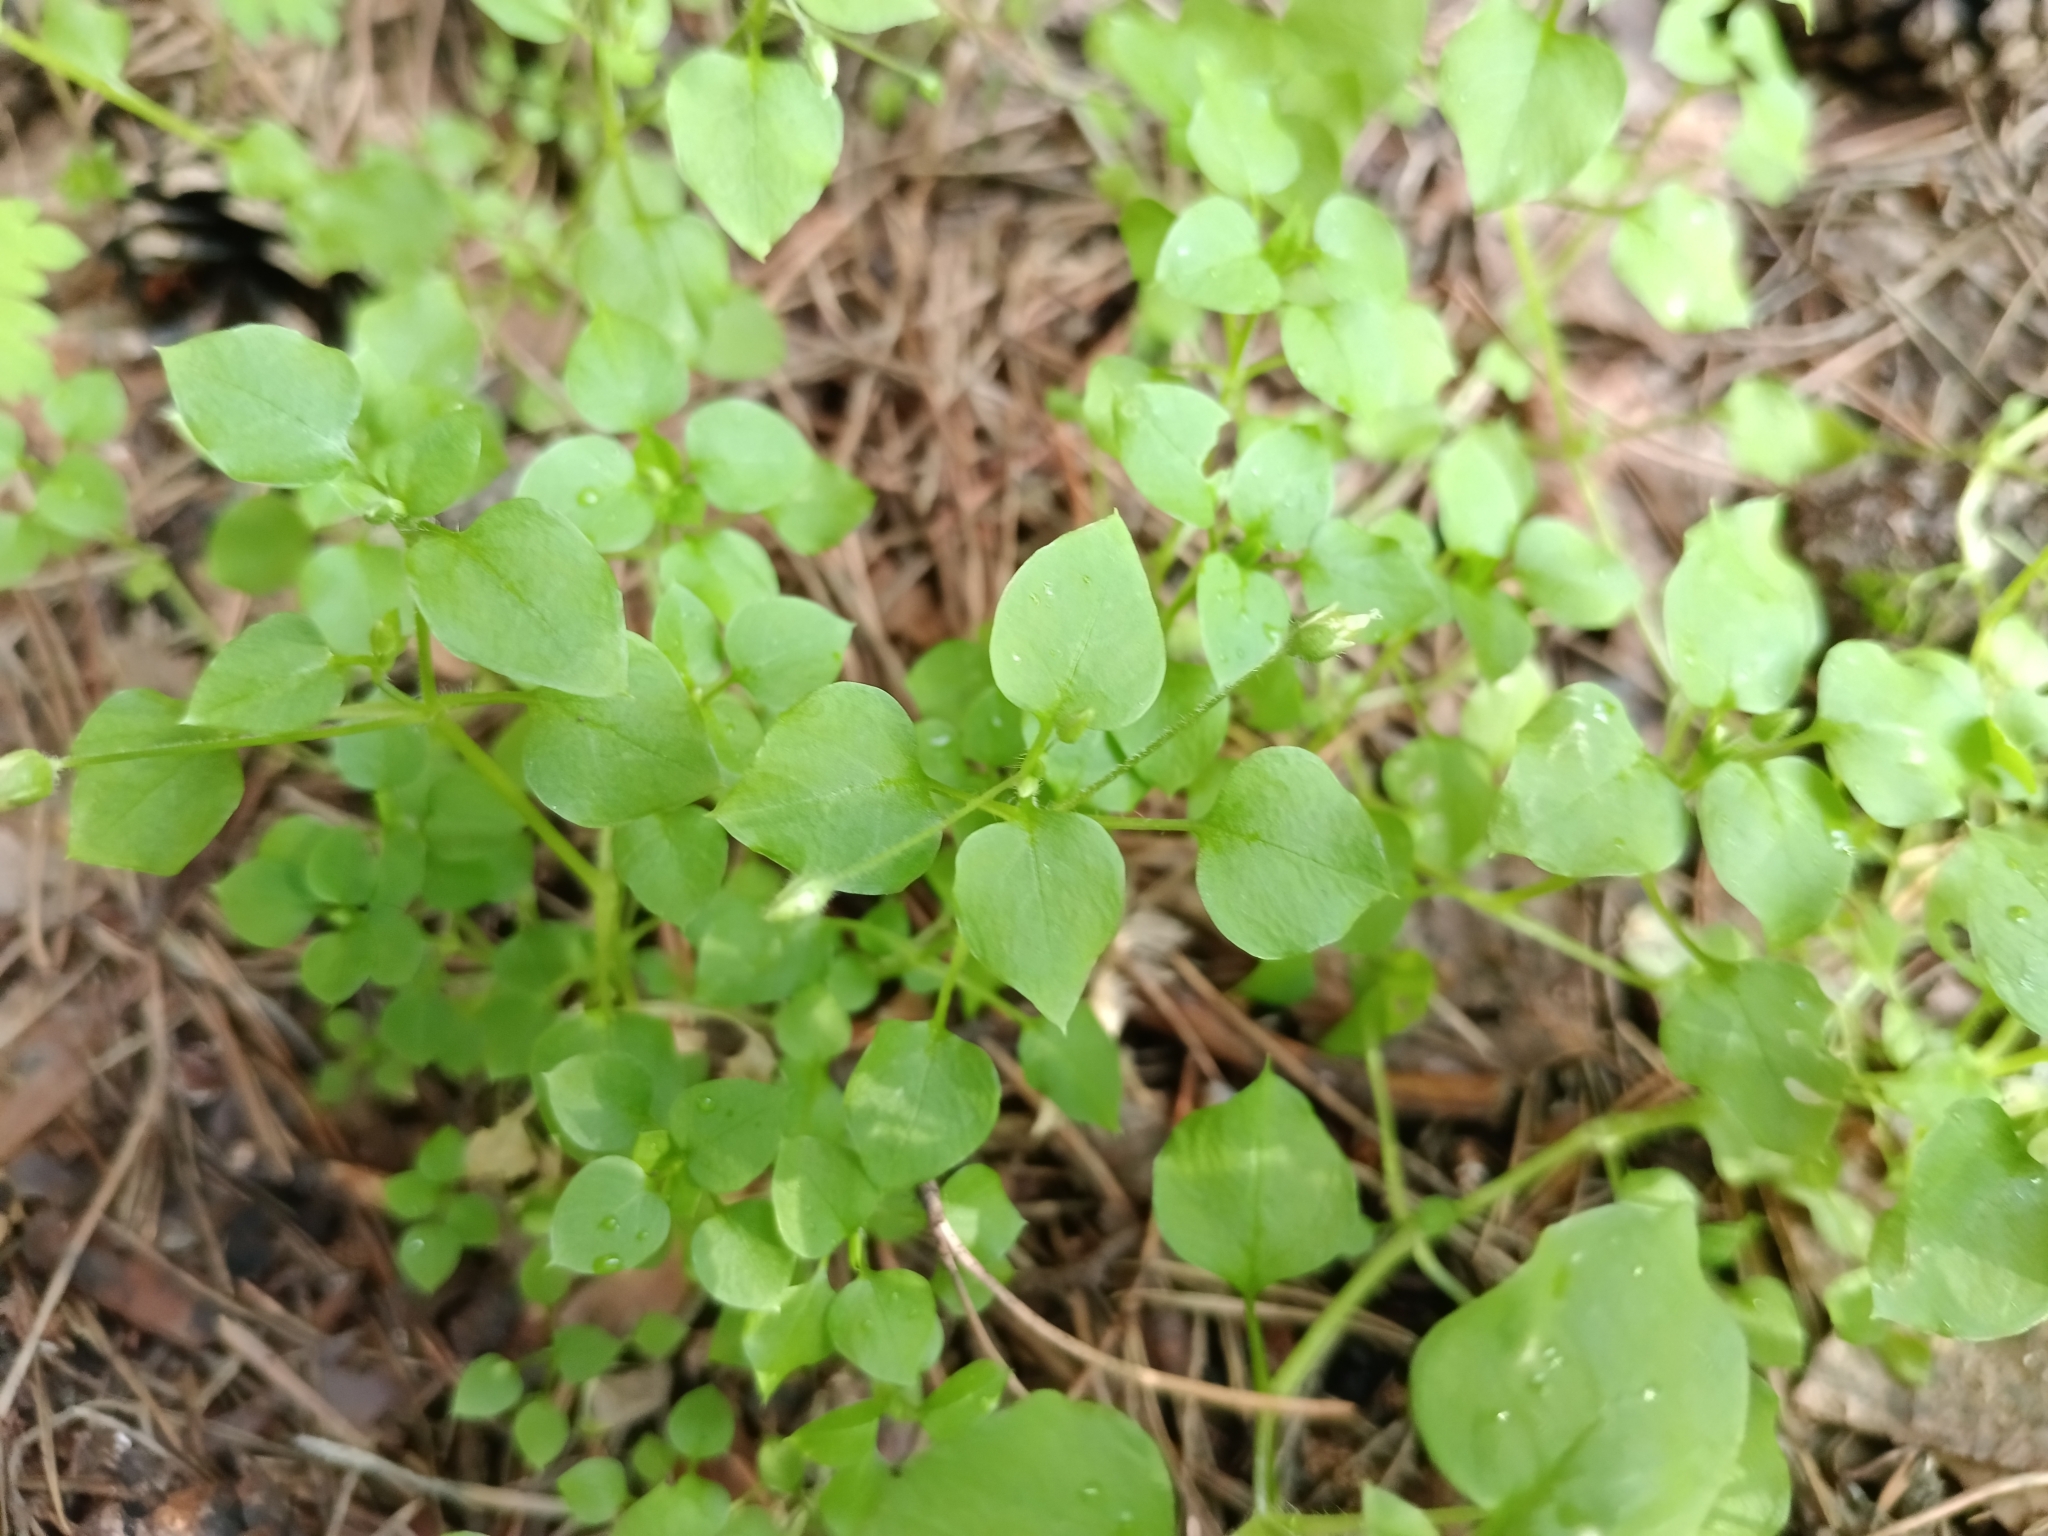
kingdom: Plantae
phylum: Tracheophyta
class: Magnoliopsida
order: Caryophyllales
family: Caryophyllaceae
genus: Stellaria
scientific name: Stellaria media
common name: Common chickweed
